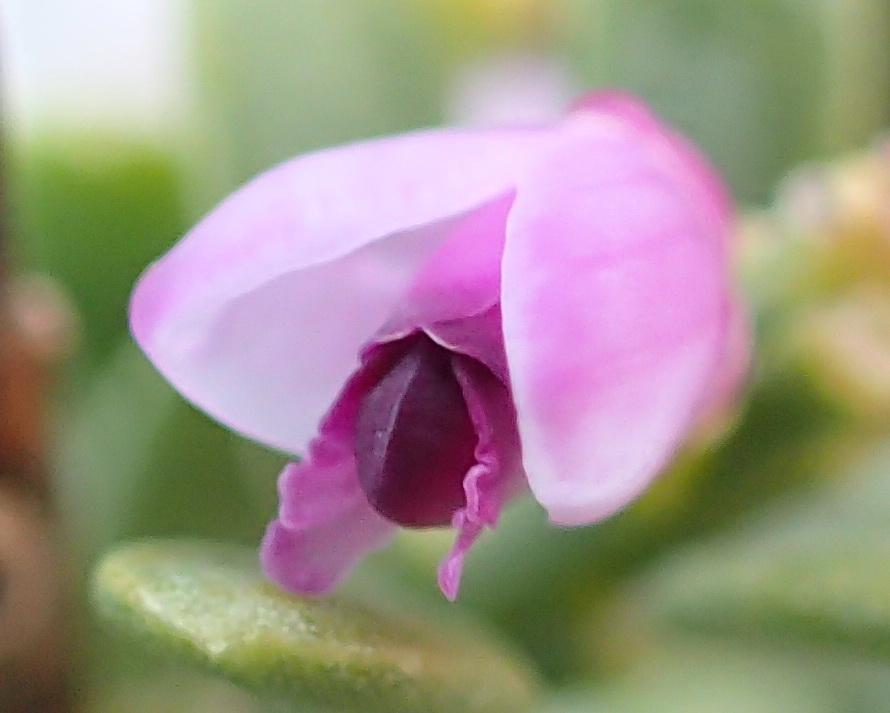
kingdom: Plantae
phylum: Tracheophyta
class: Magnoliopsida
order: Fabales
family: Polygalaceae
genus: Muraltia
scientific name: Muraltia spinosa
